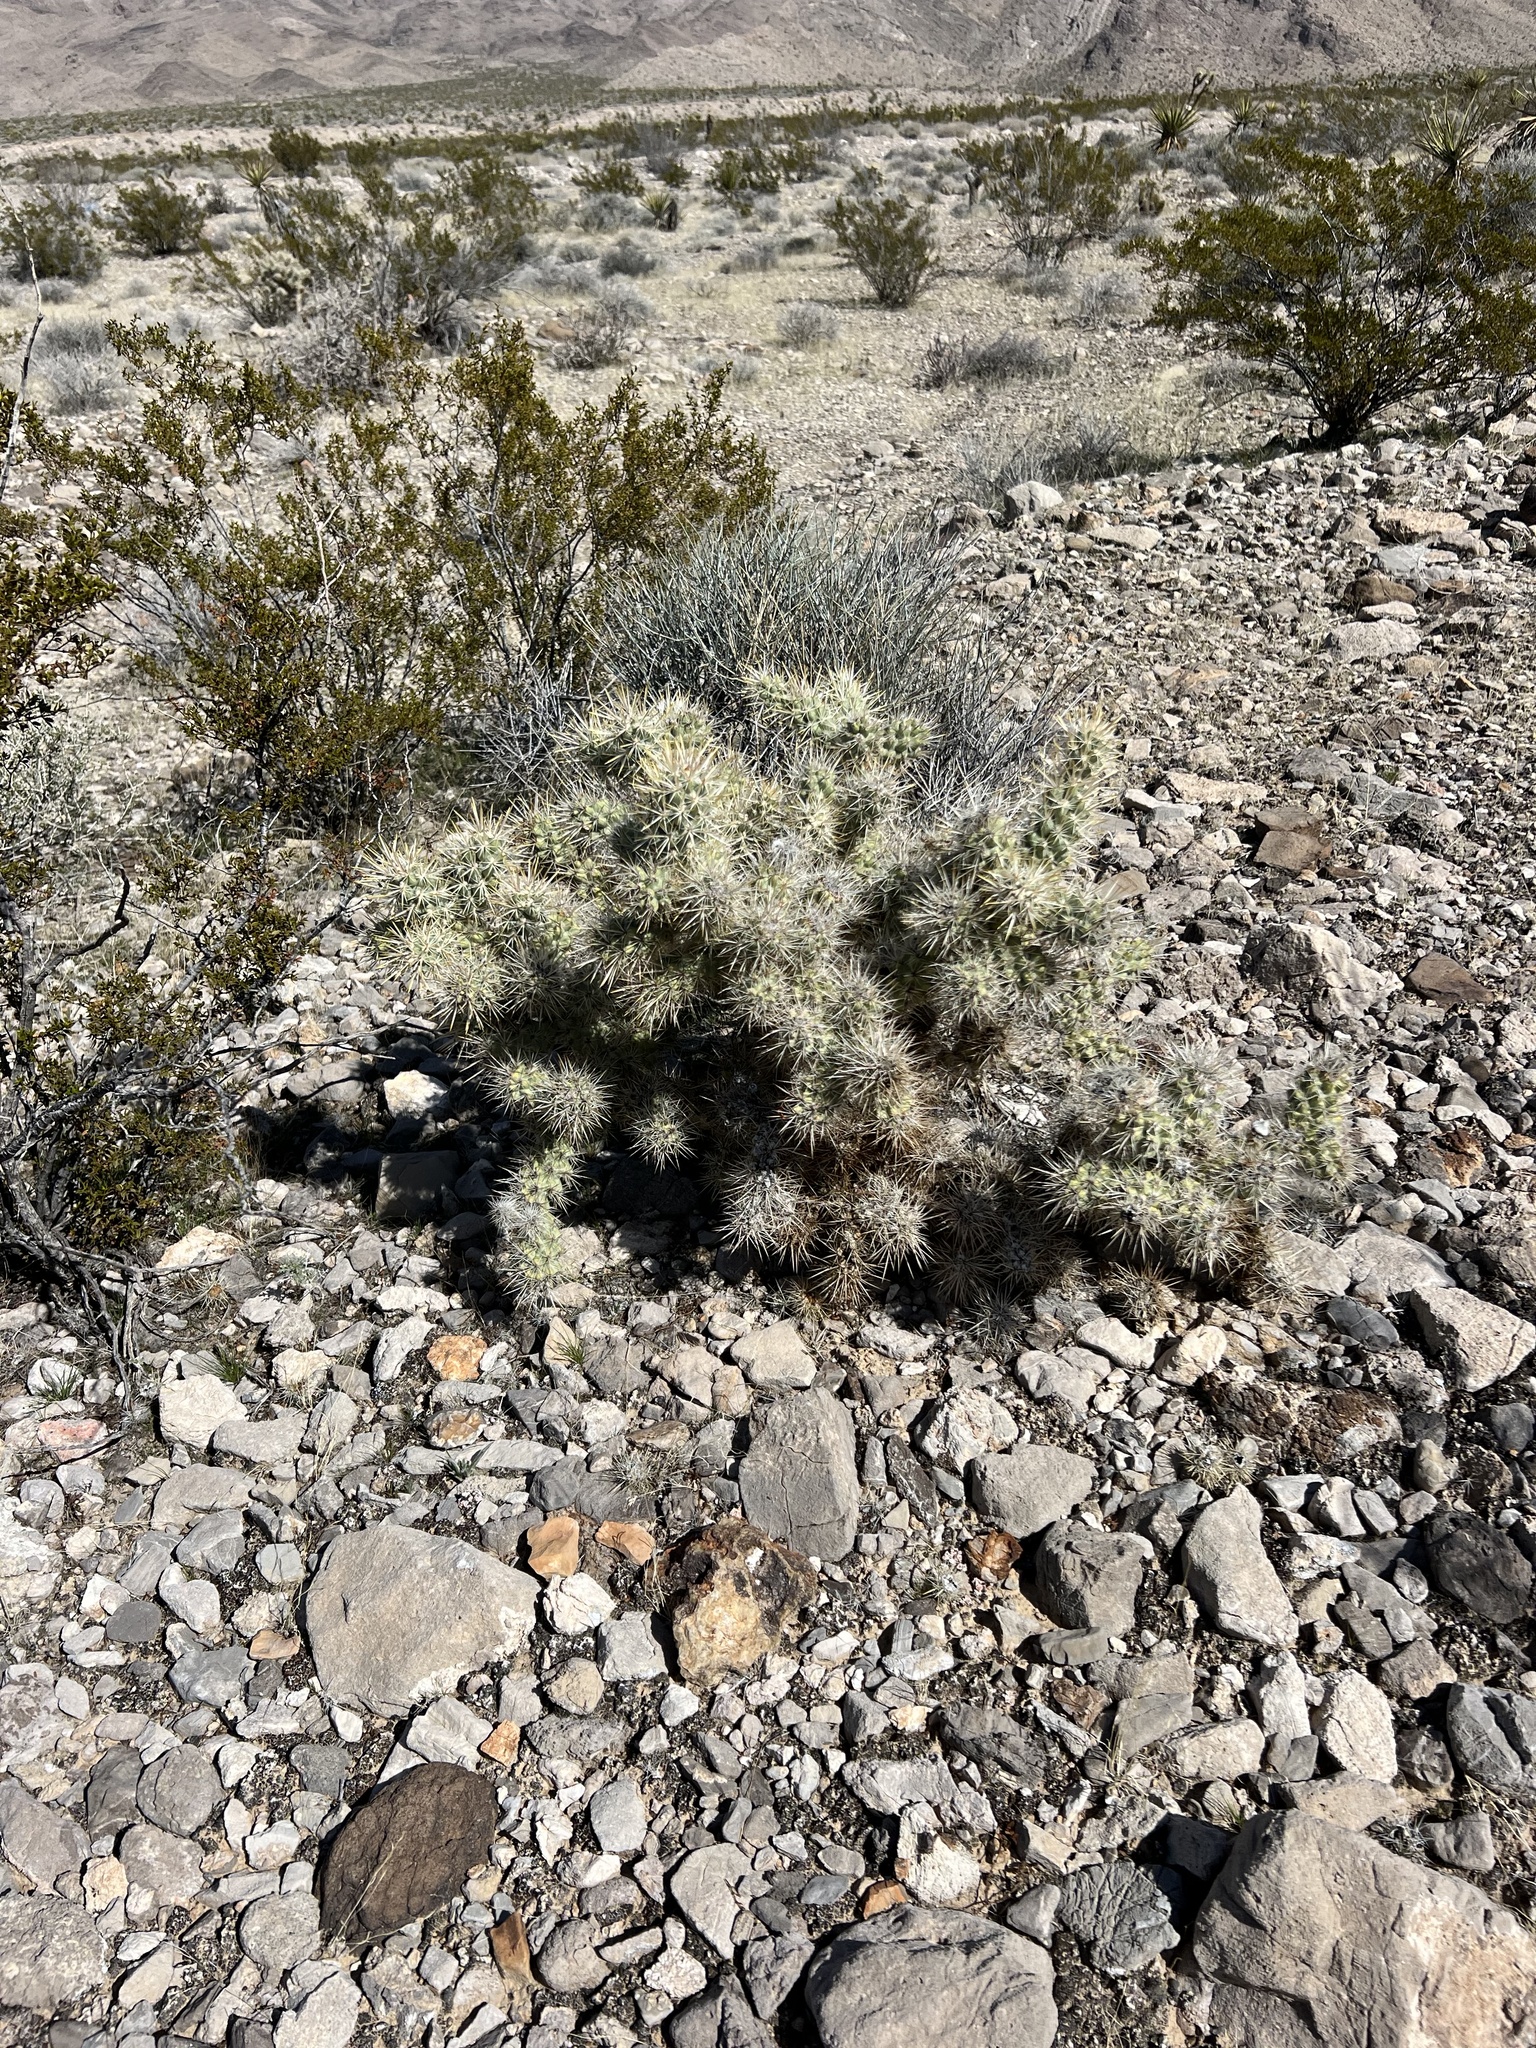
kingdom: Plantae
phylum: Tracheophyta
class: Magnoliopsida
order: Caryophyllales
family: Cactaceae
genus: Cylindropuntia
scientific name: Cylindropuntia echinocarpa
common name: Ground cholla
